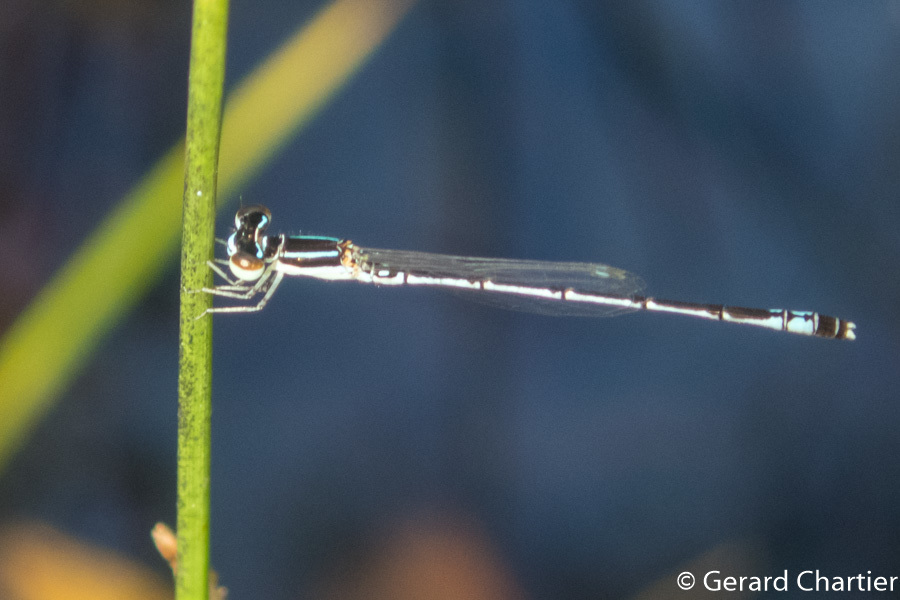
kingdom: Animalia
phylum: Arthropoda
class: Insecta
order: Odonata
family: Coenagrionidae
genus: Agriocnemis
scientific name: Agriocnemis nana
